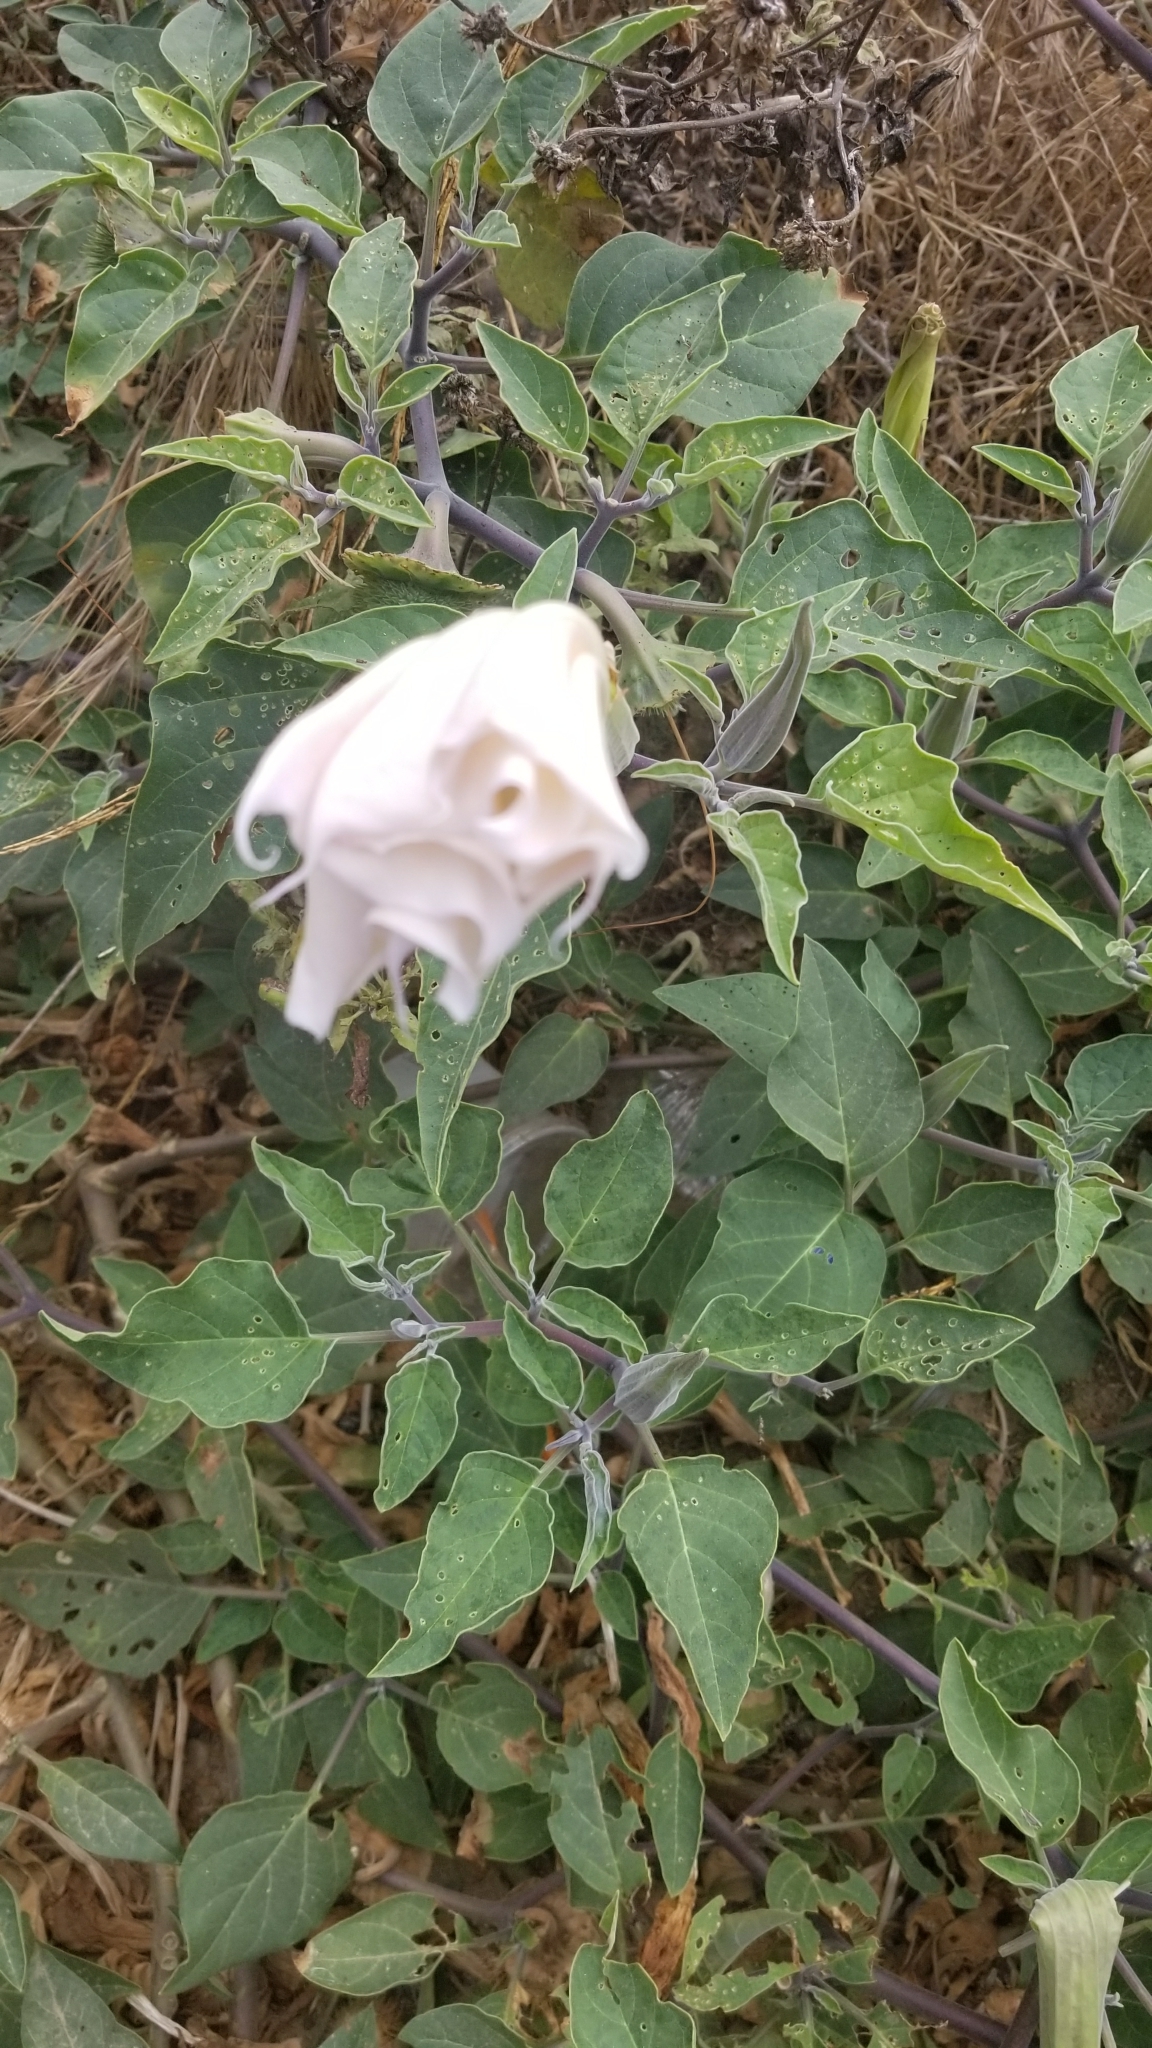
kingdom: Plantae
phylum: Tracheophyta
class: Magnoliopsida
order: Solanales
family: Solanaceae
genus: Datura
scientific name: Datura wrightii
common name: Sacred thorn-apple
